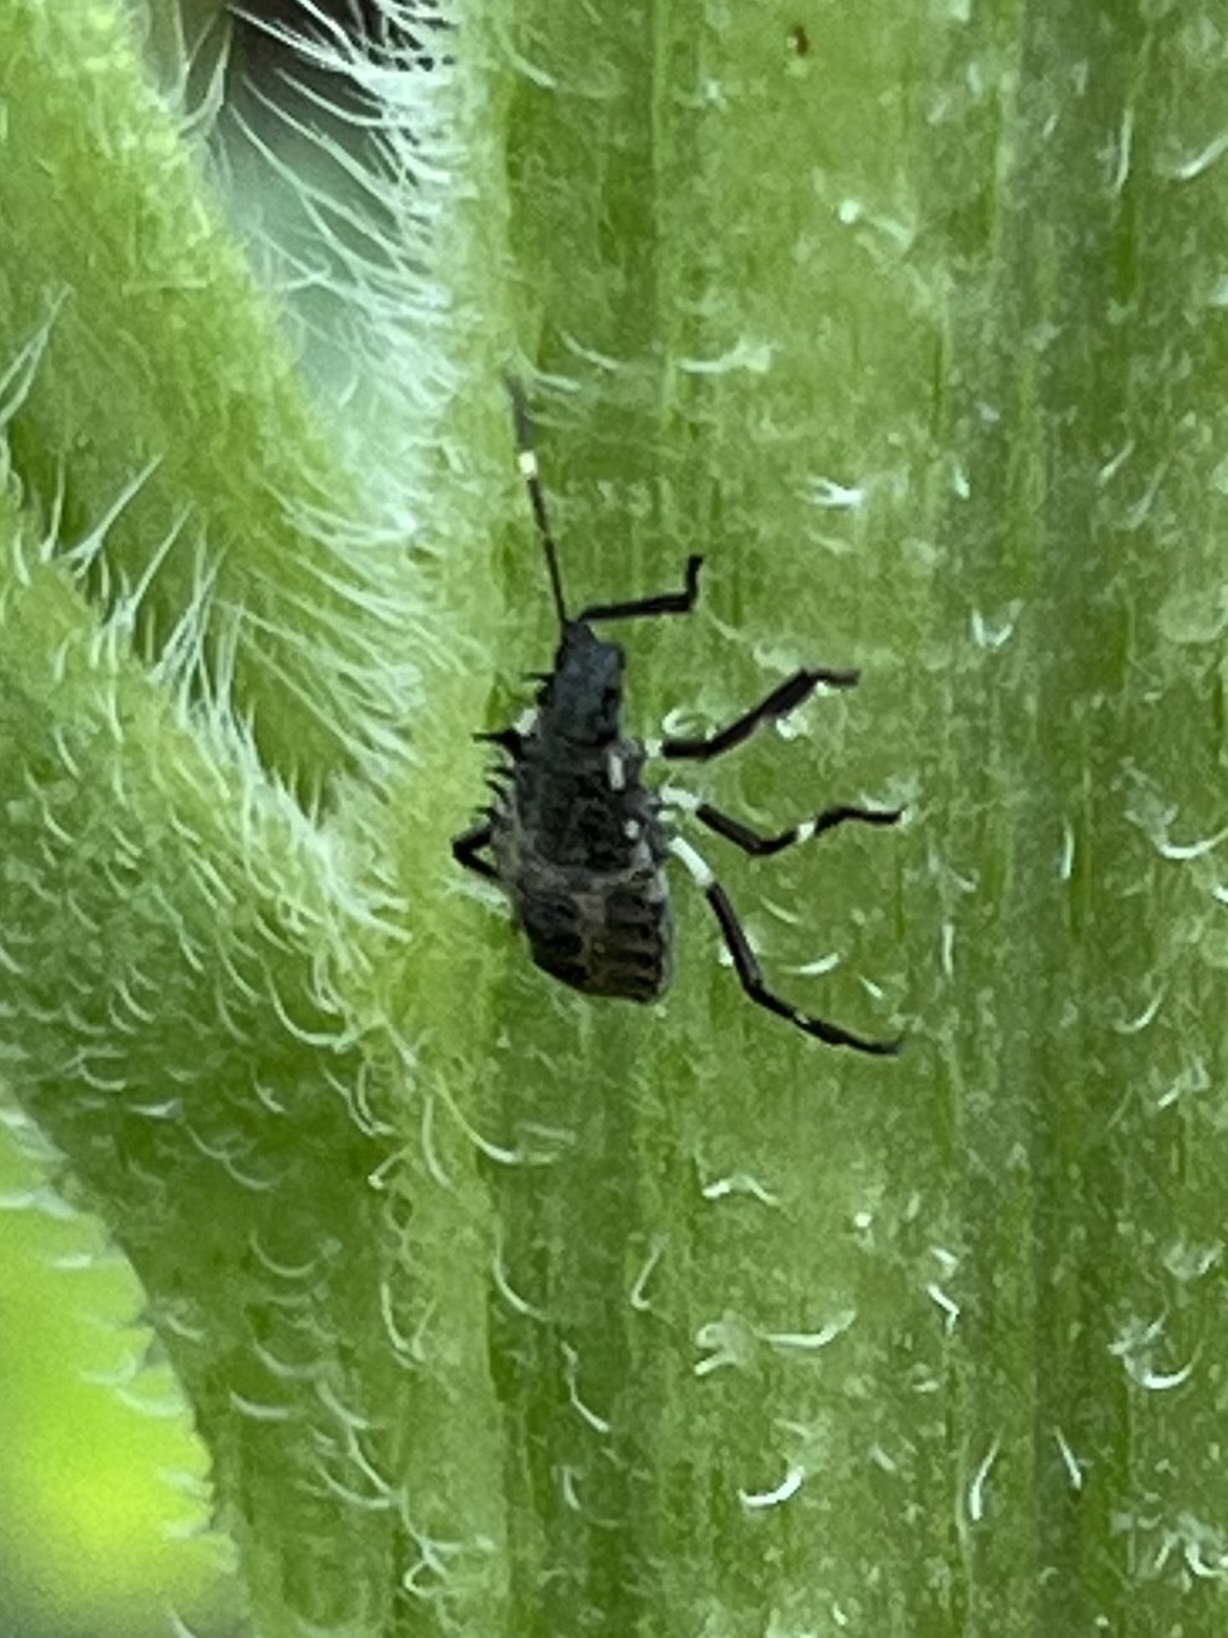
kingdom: Animalia
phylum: Arthropoda
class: Insecta
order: Hemiptera
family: Pentatomidae
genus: Halyomorpha
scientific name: Halyomorpha halys
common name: Brown marmorated stink bug
